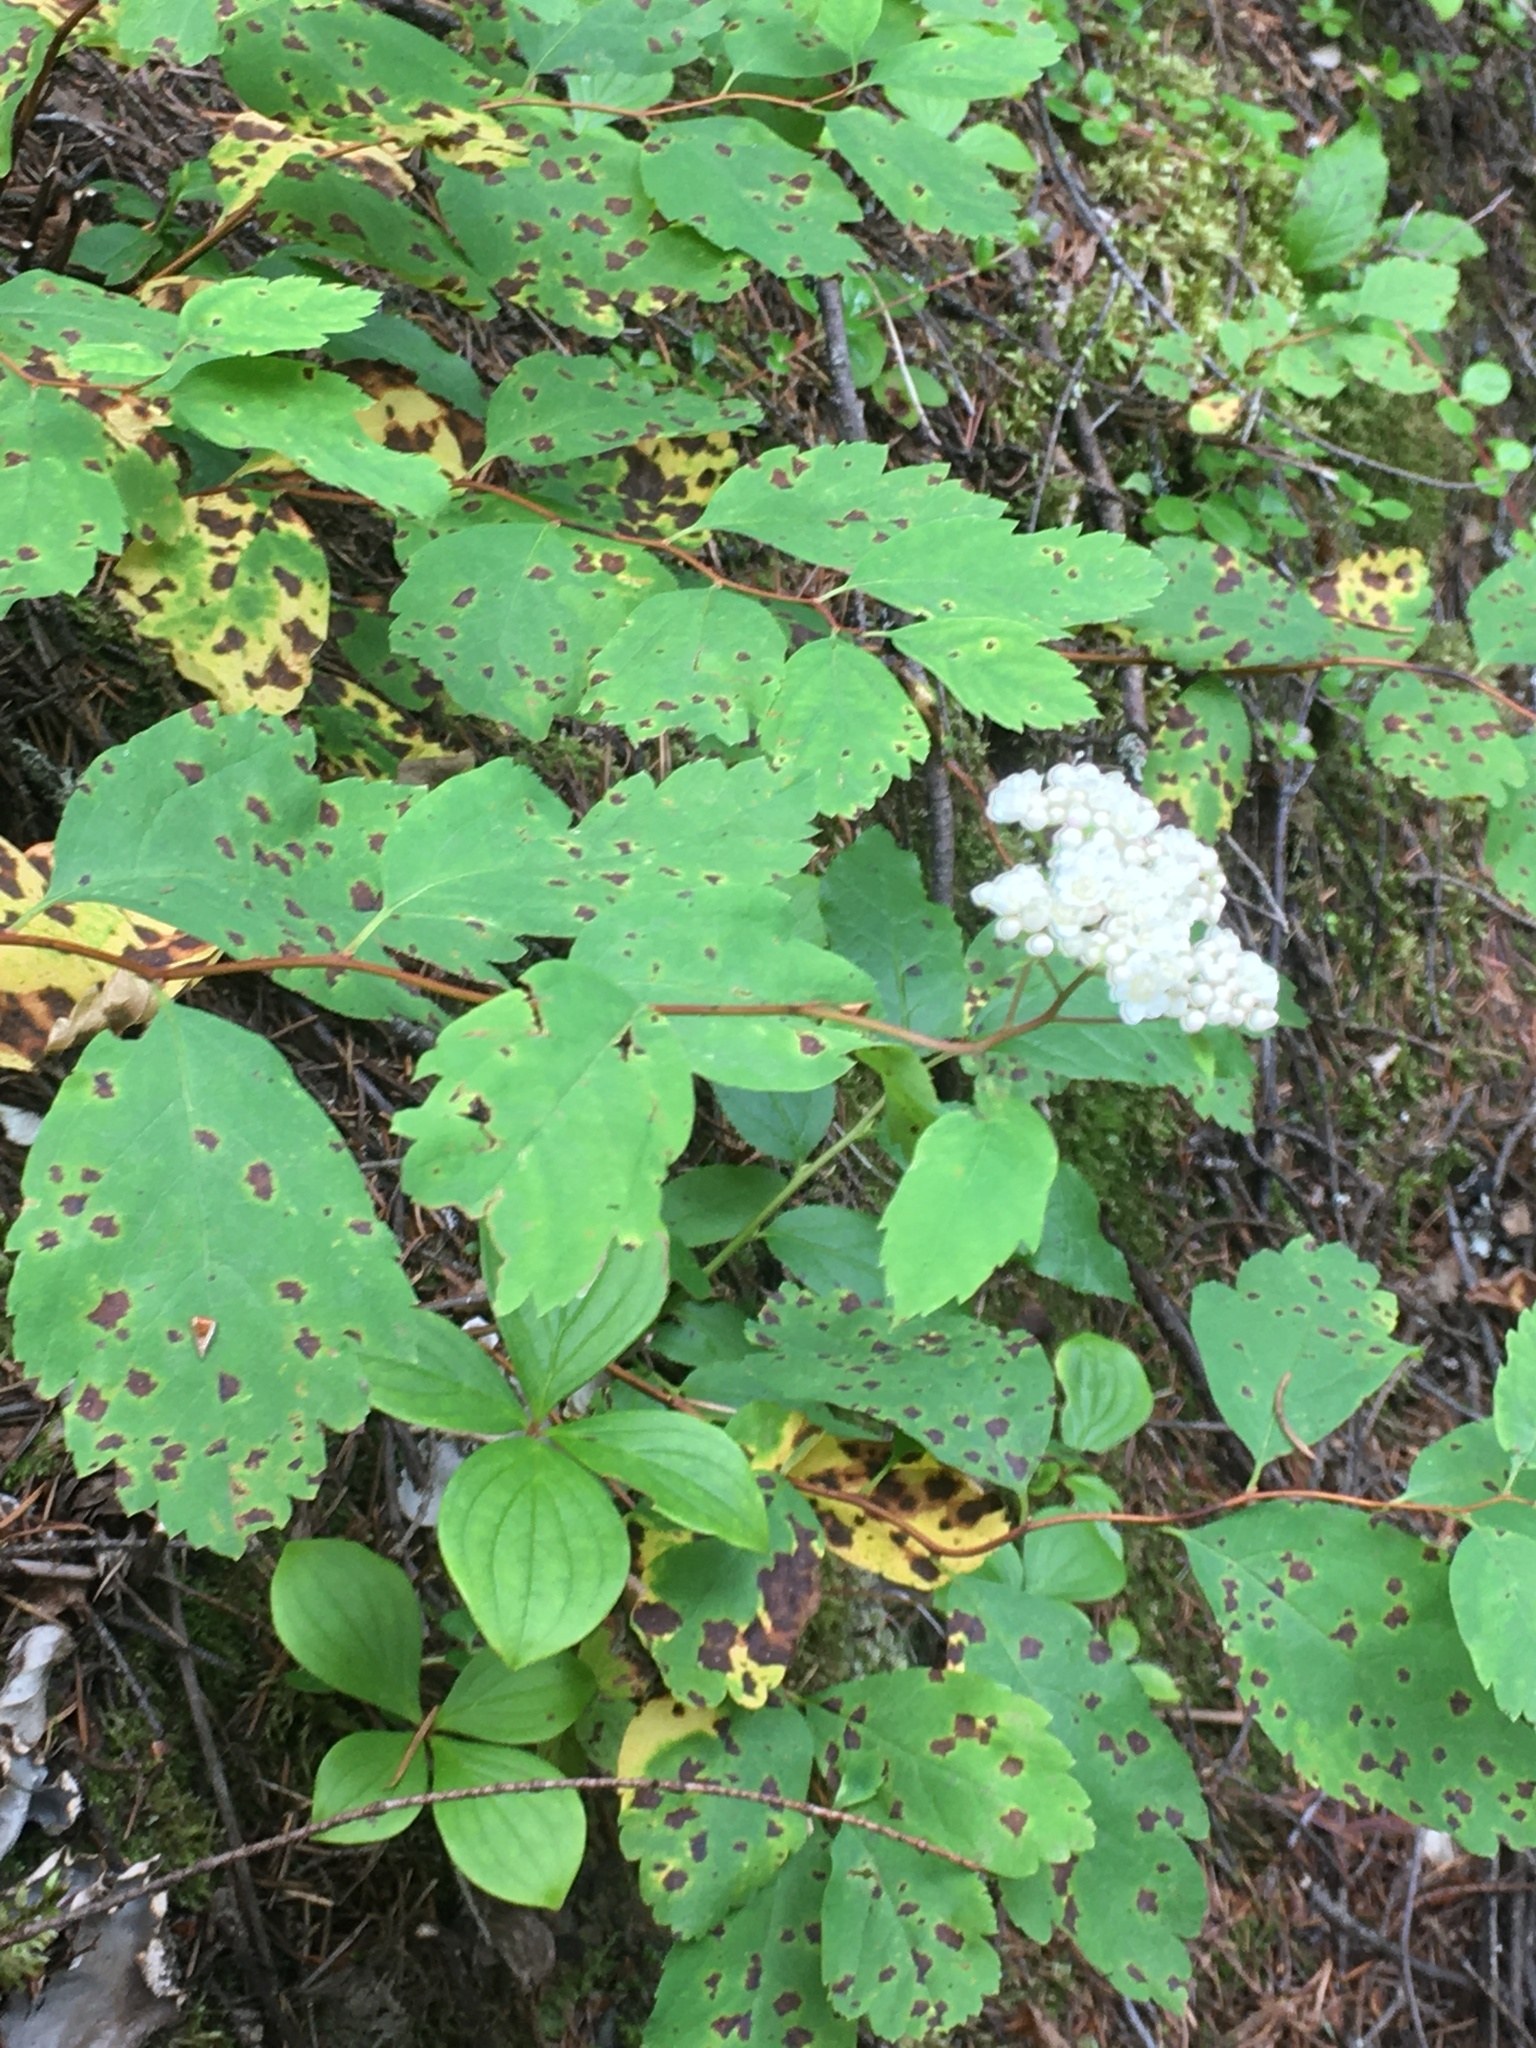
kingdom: Plantae
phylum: Tracheophyta
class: Magnoliopsida
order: Rosales
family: Rosaceae
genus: Spiraea
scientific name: Spiraea lucida
